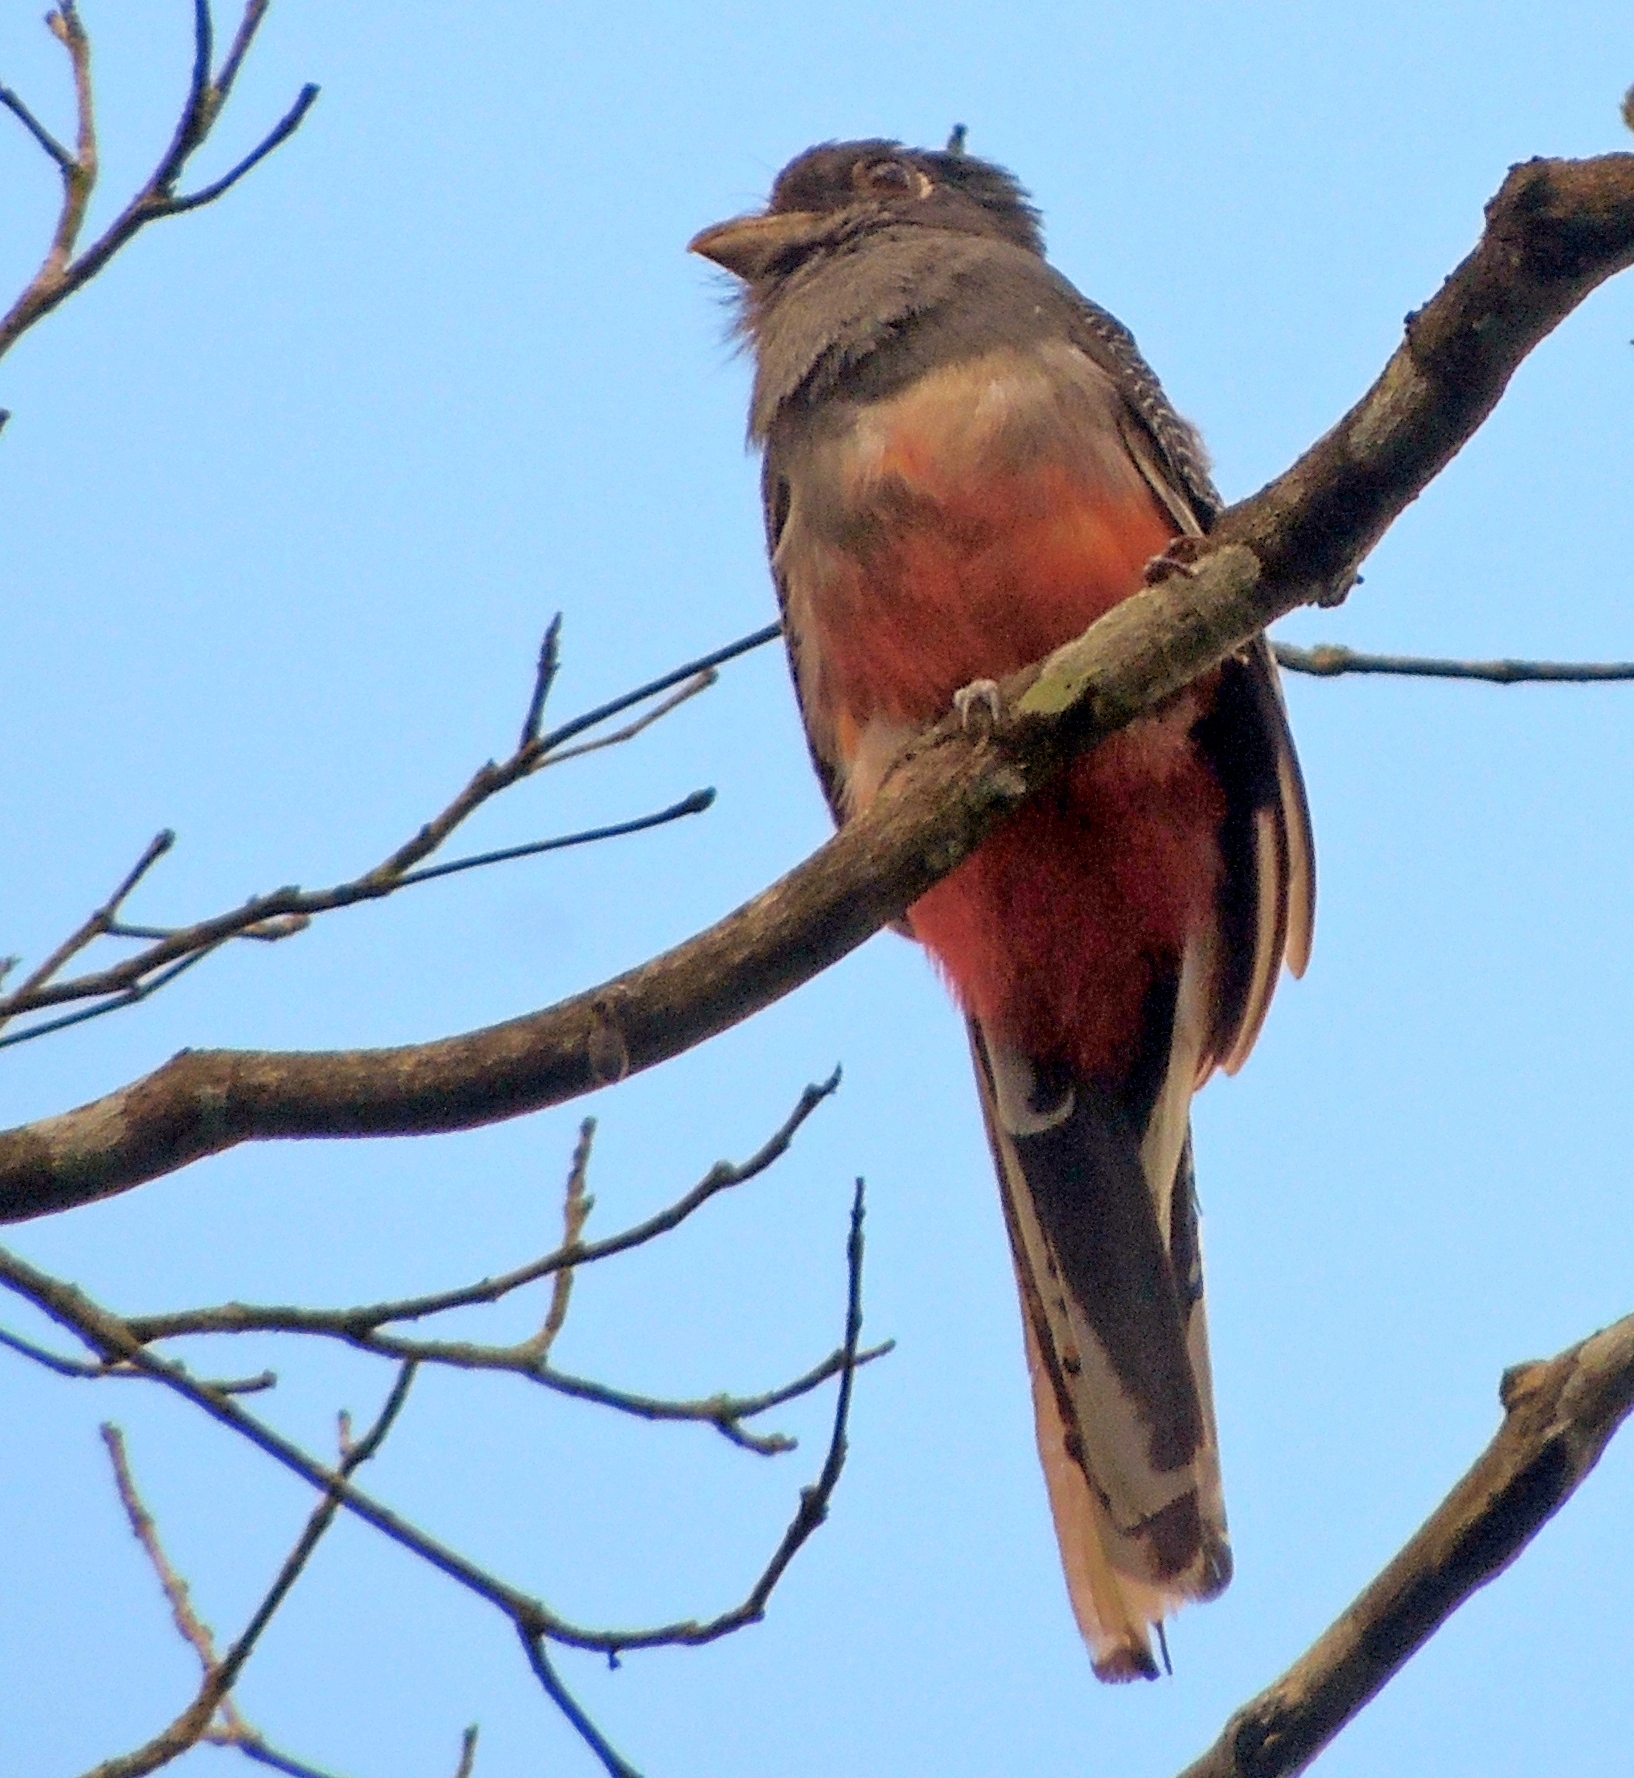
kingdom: Animalia
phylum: Chordata
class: Aves
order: Trogoniformes
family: Trogonidae
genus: Trogon
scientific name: Trogon curucui
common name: Blue-crowned trogon
